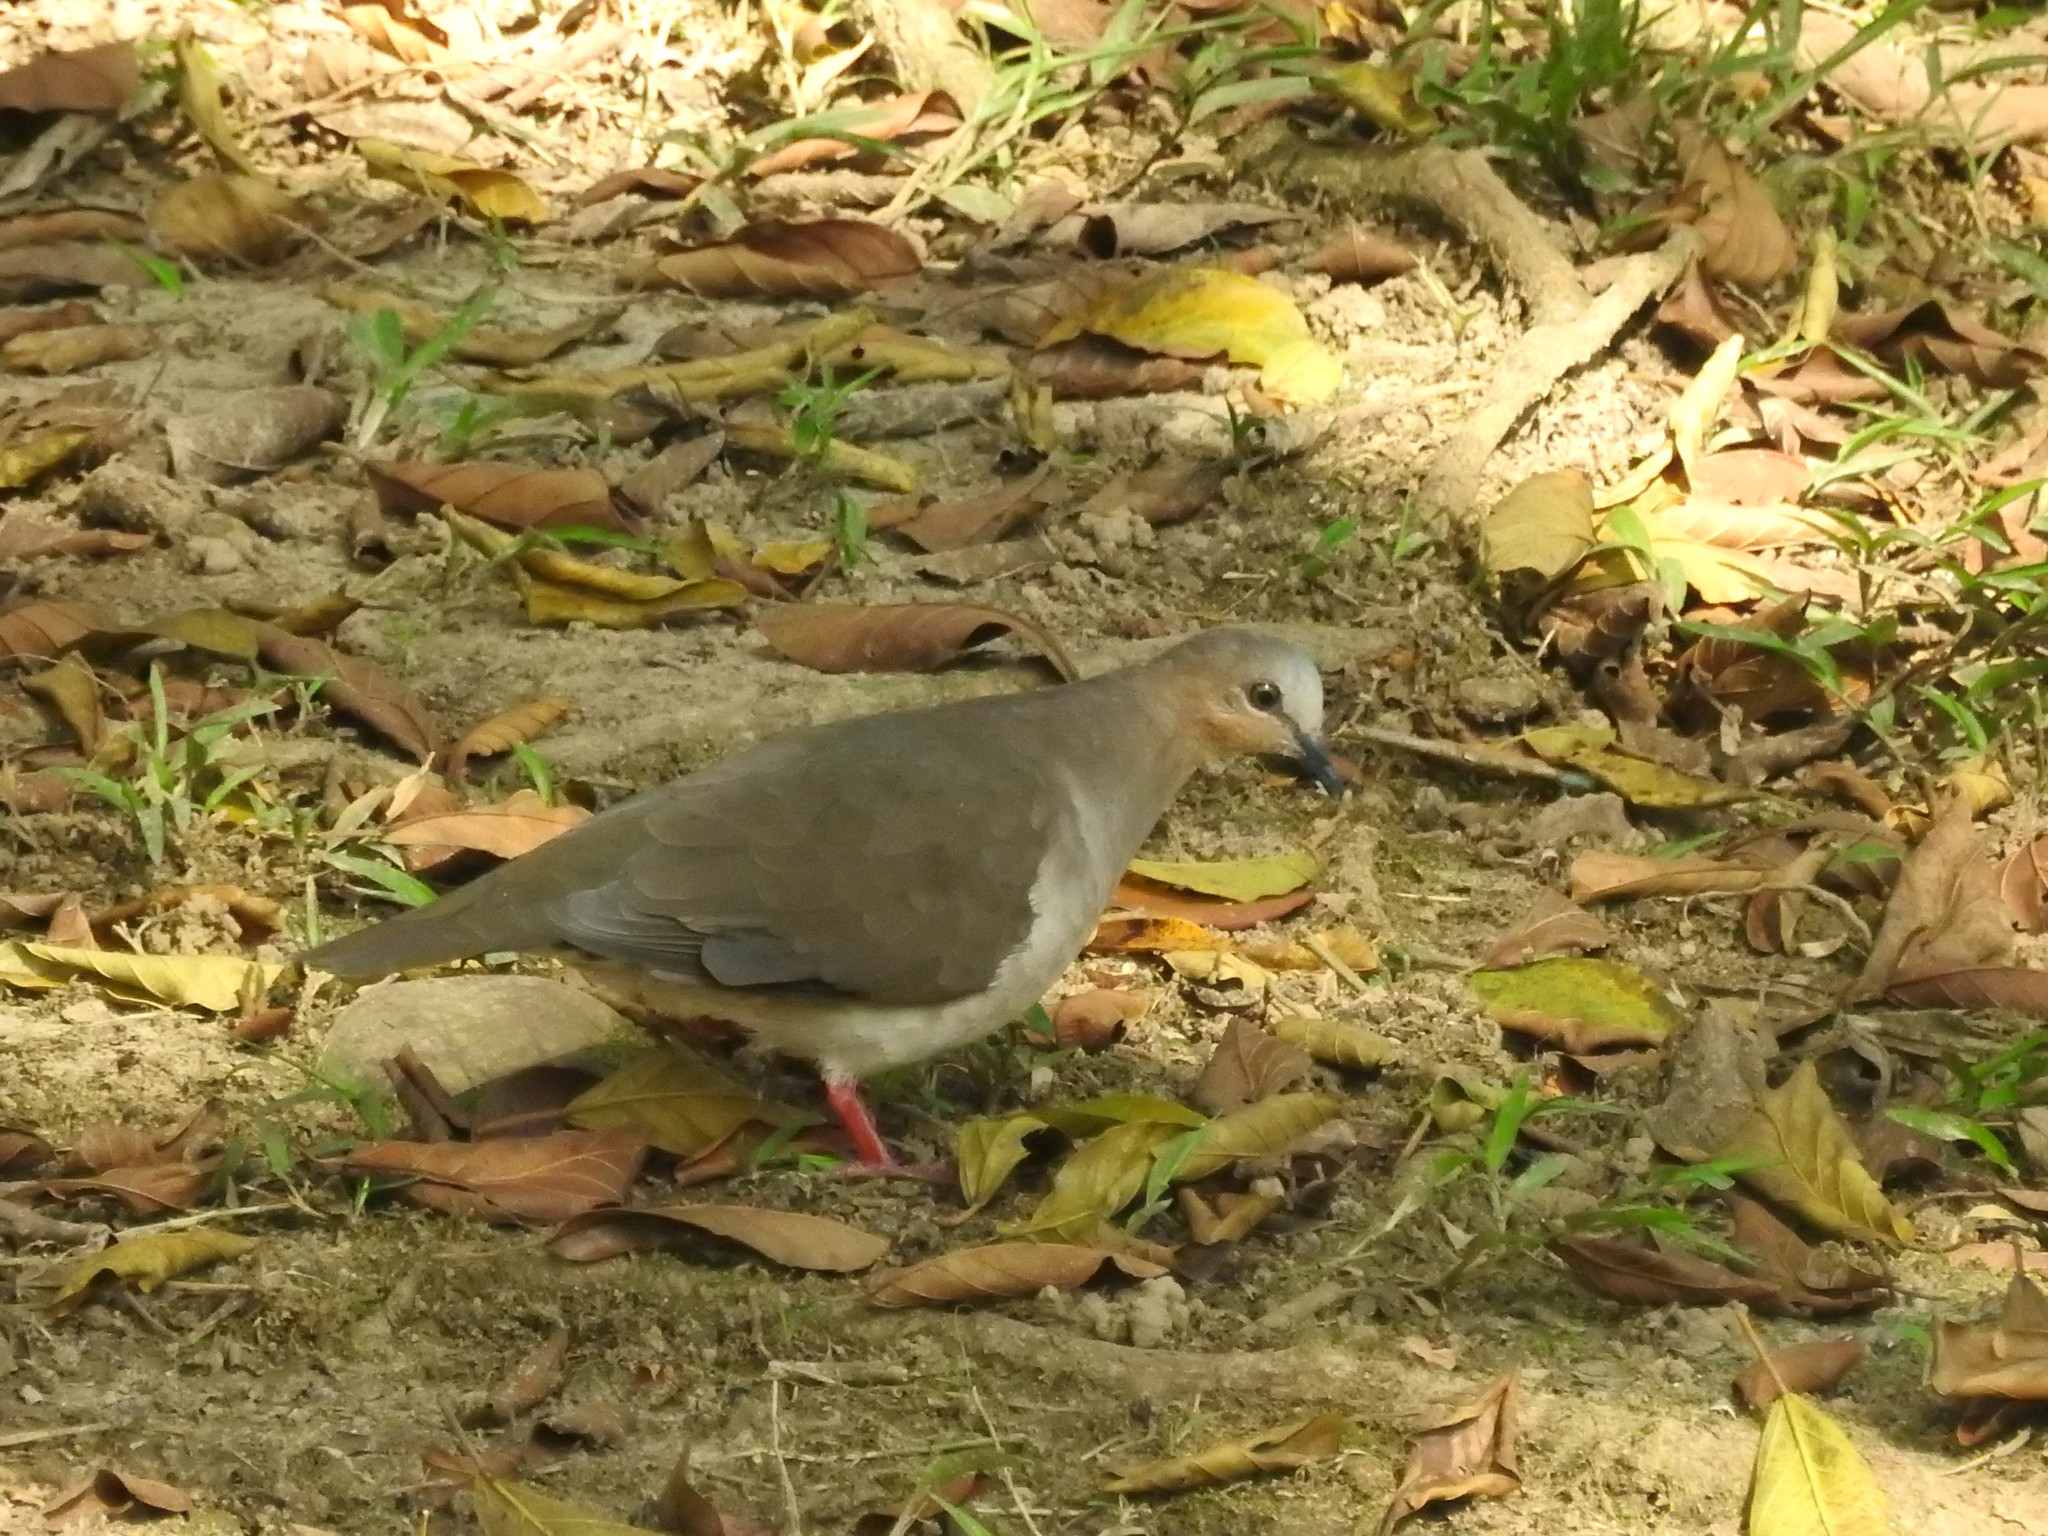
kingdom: Animalia
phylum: Chordata
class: Aves
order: Columbiformes
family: Columbidae
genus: Leptotila
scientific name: Leptotila rufaxilla
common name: Grey-fronted dove
